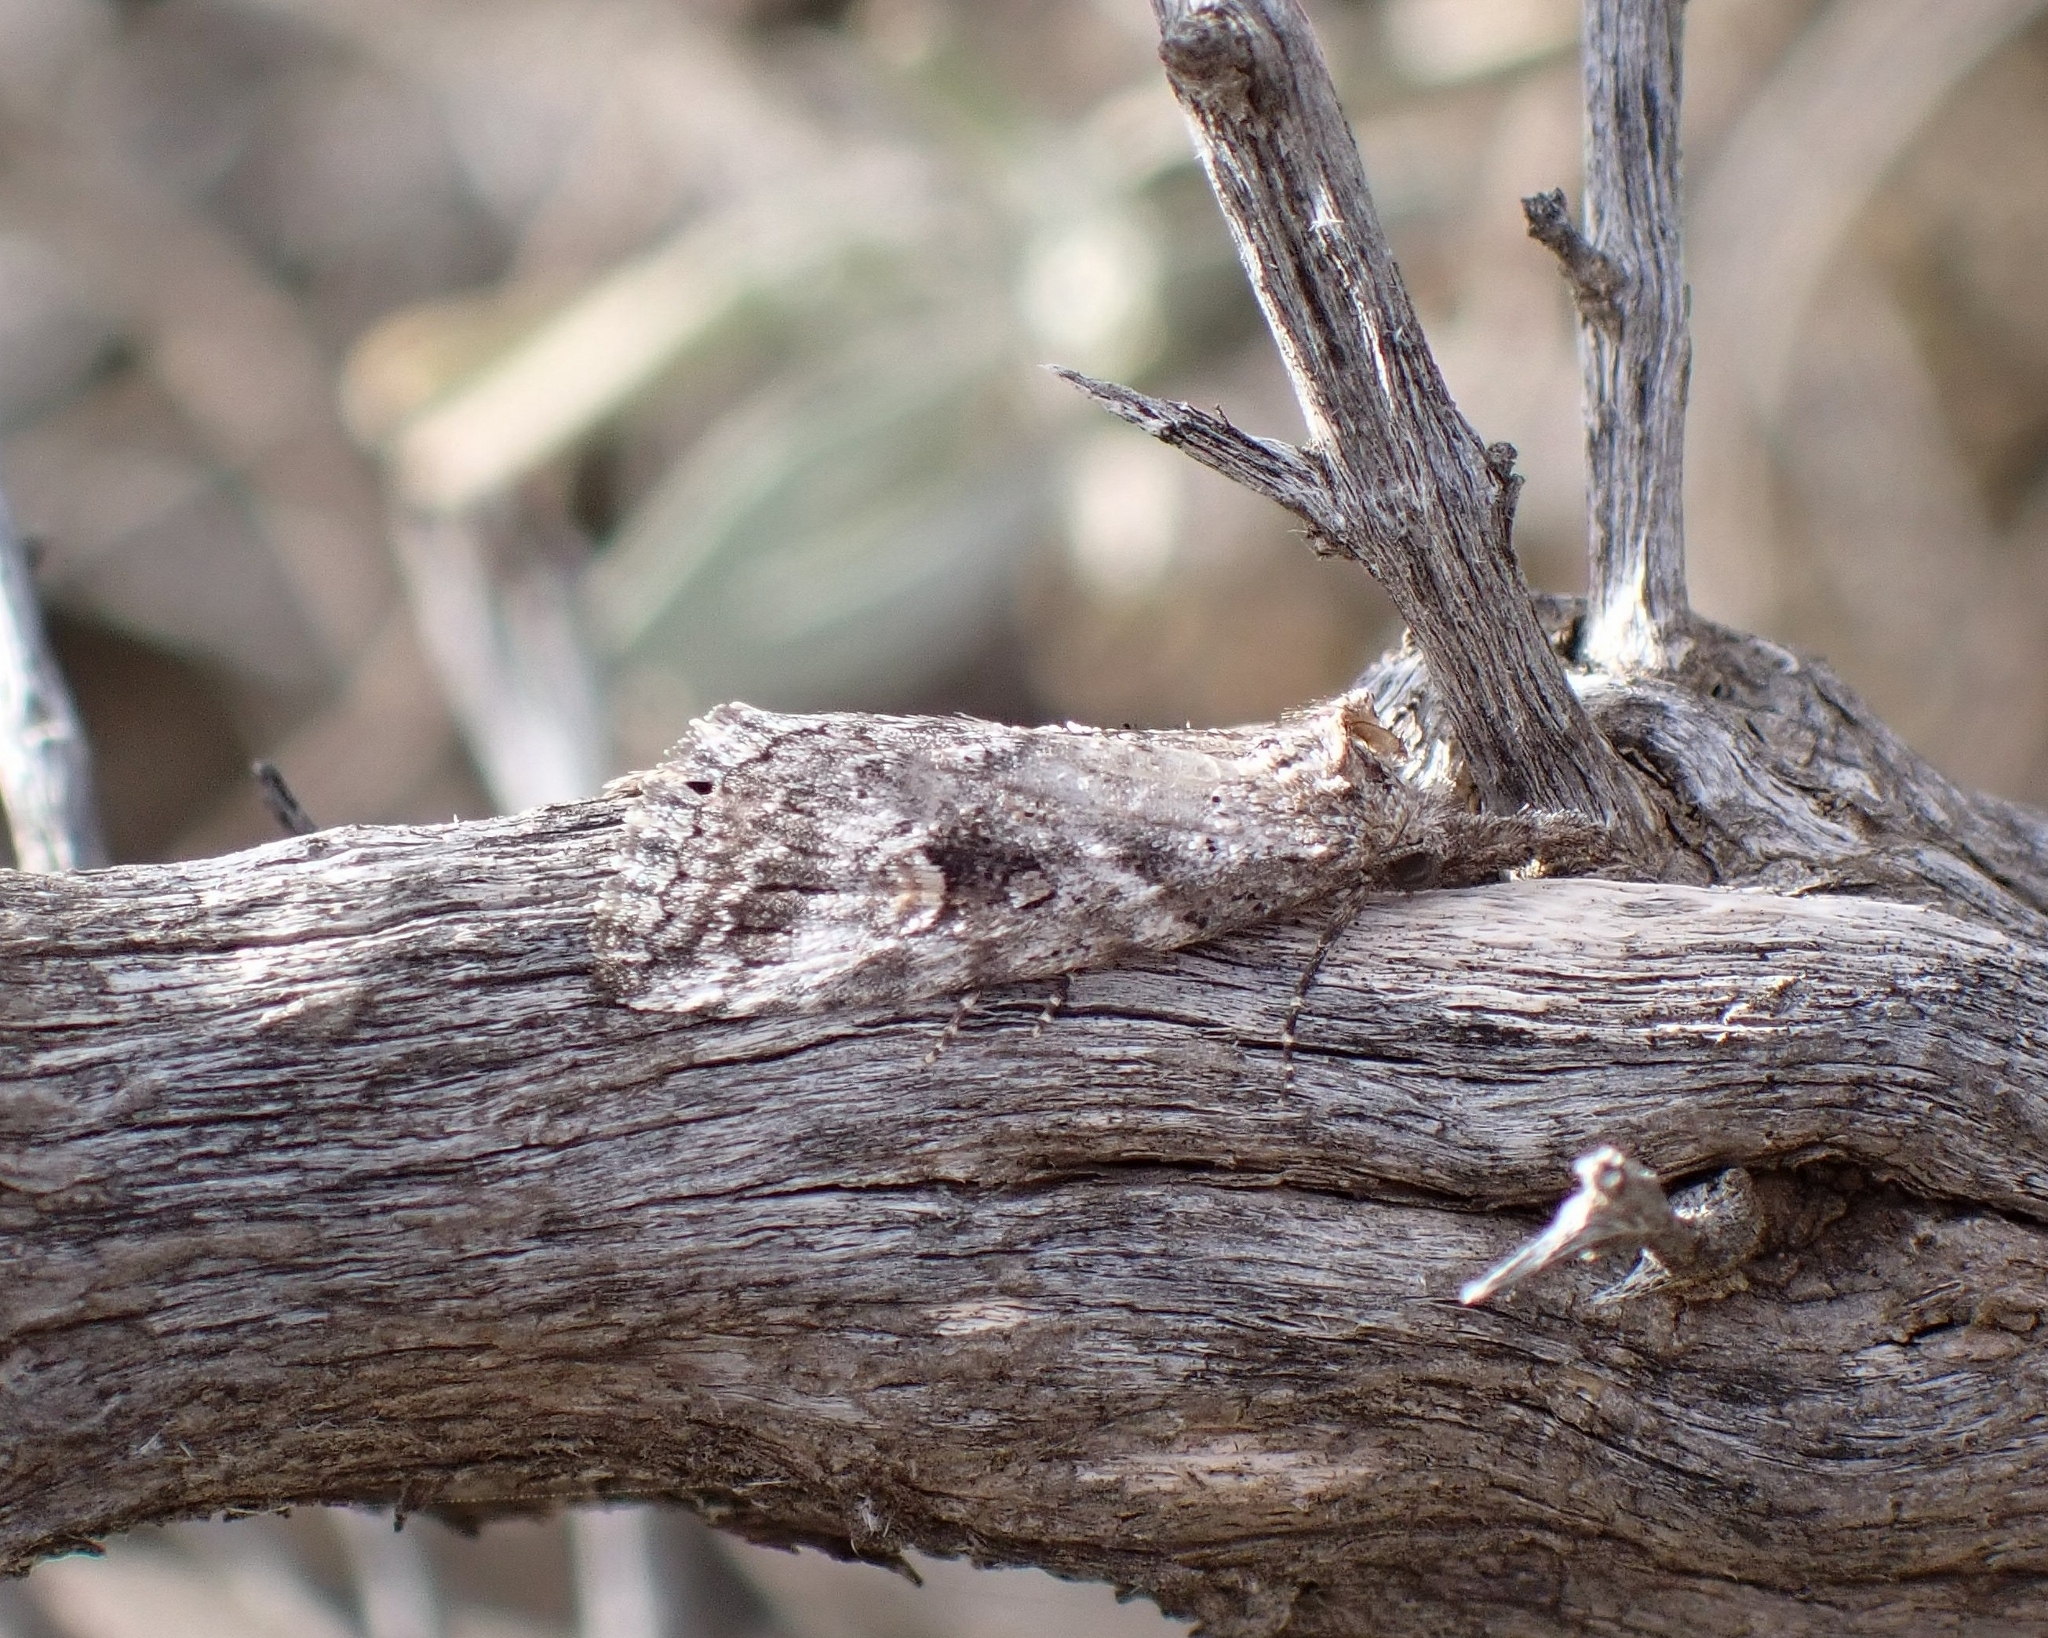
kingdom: Animalia
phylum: Arthropoda
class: Insecta
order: Lepidoptera
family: Erebidae
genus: Rhynchina
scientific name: Rhynchina canariensis
